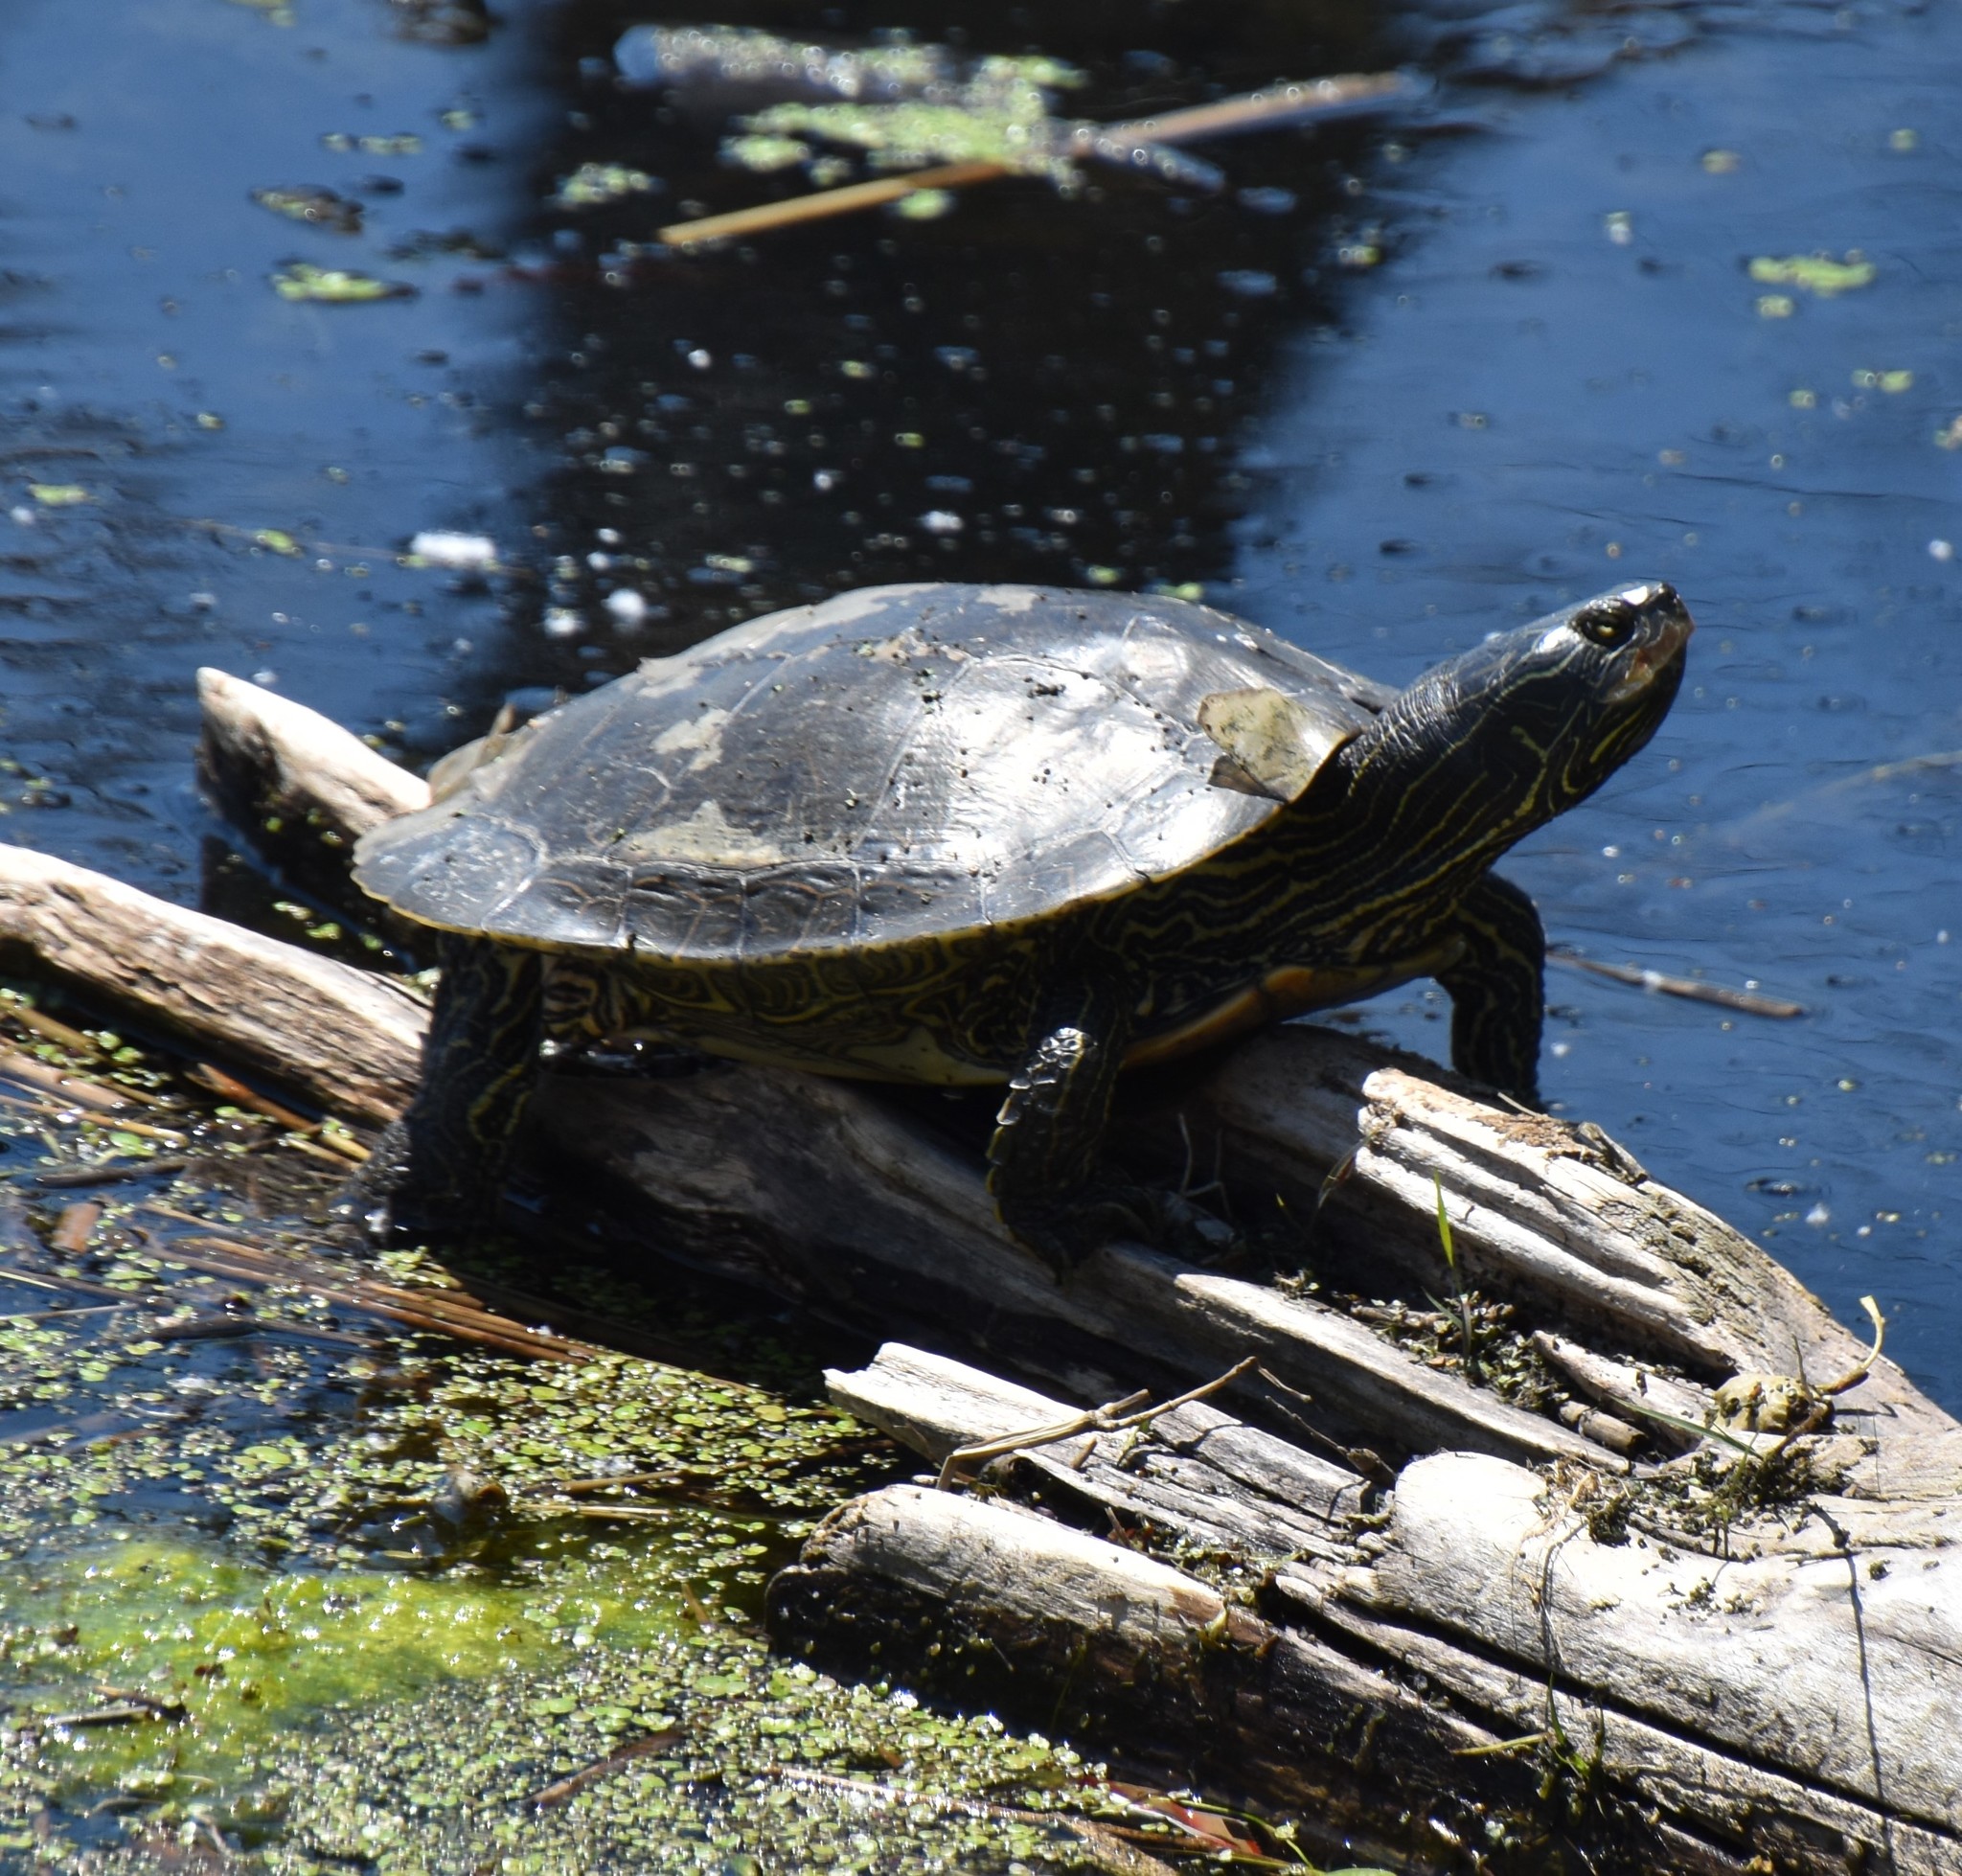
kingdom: Animalia
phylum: Chordata
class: Testudines
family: Emydidae
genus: Graptemys
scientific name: Graptemys geographica
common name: Common map turtle
